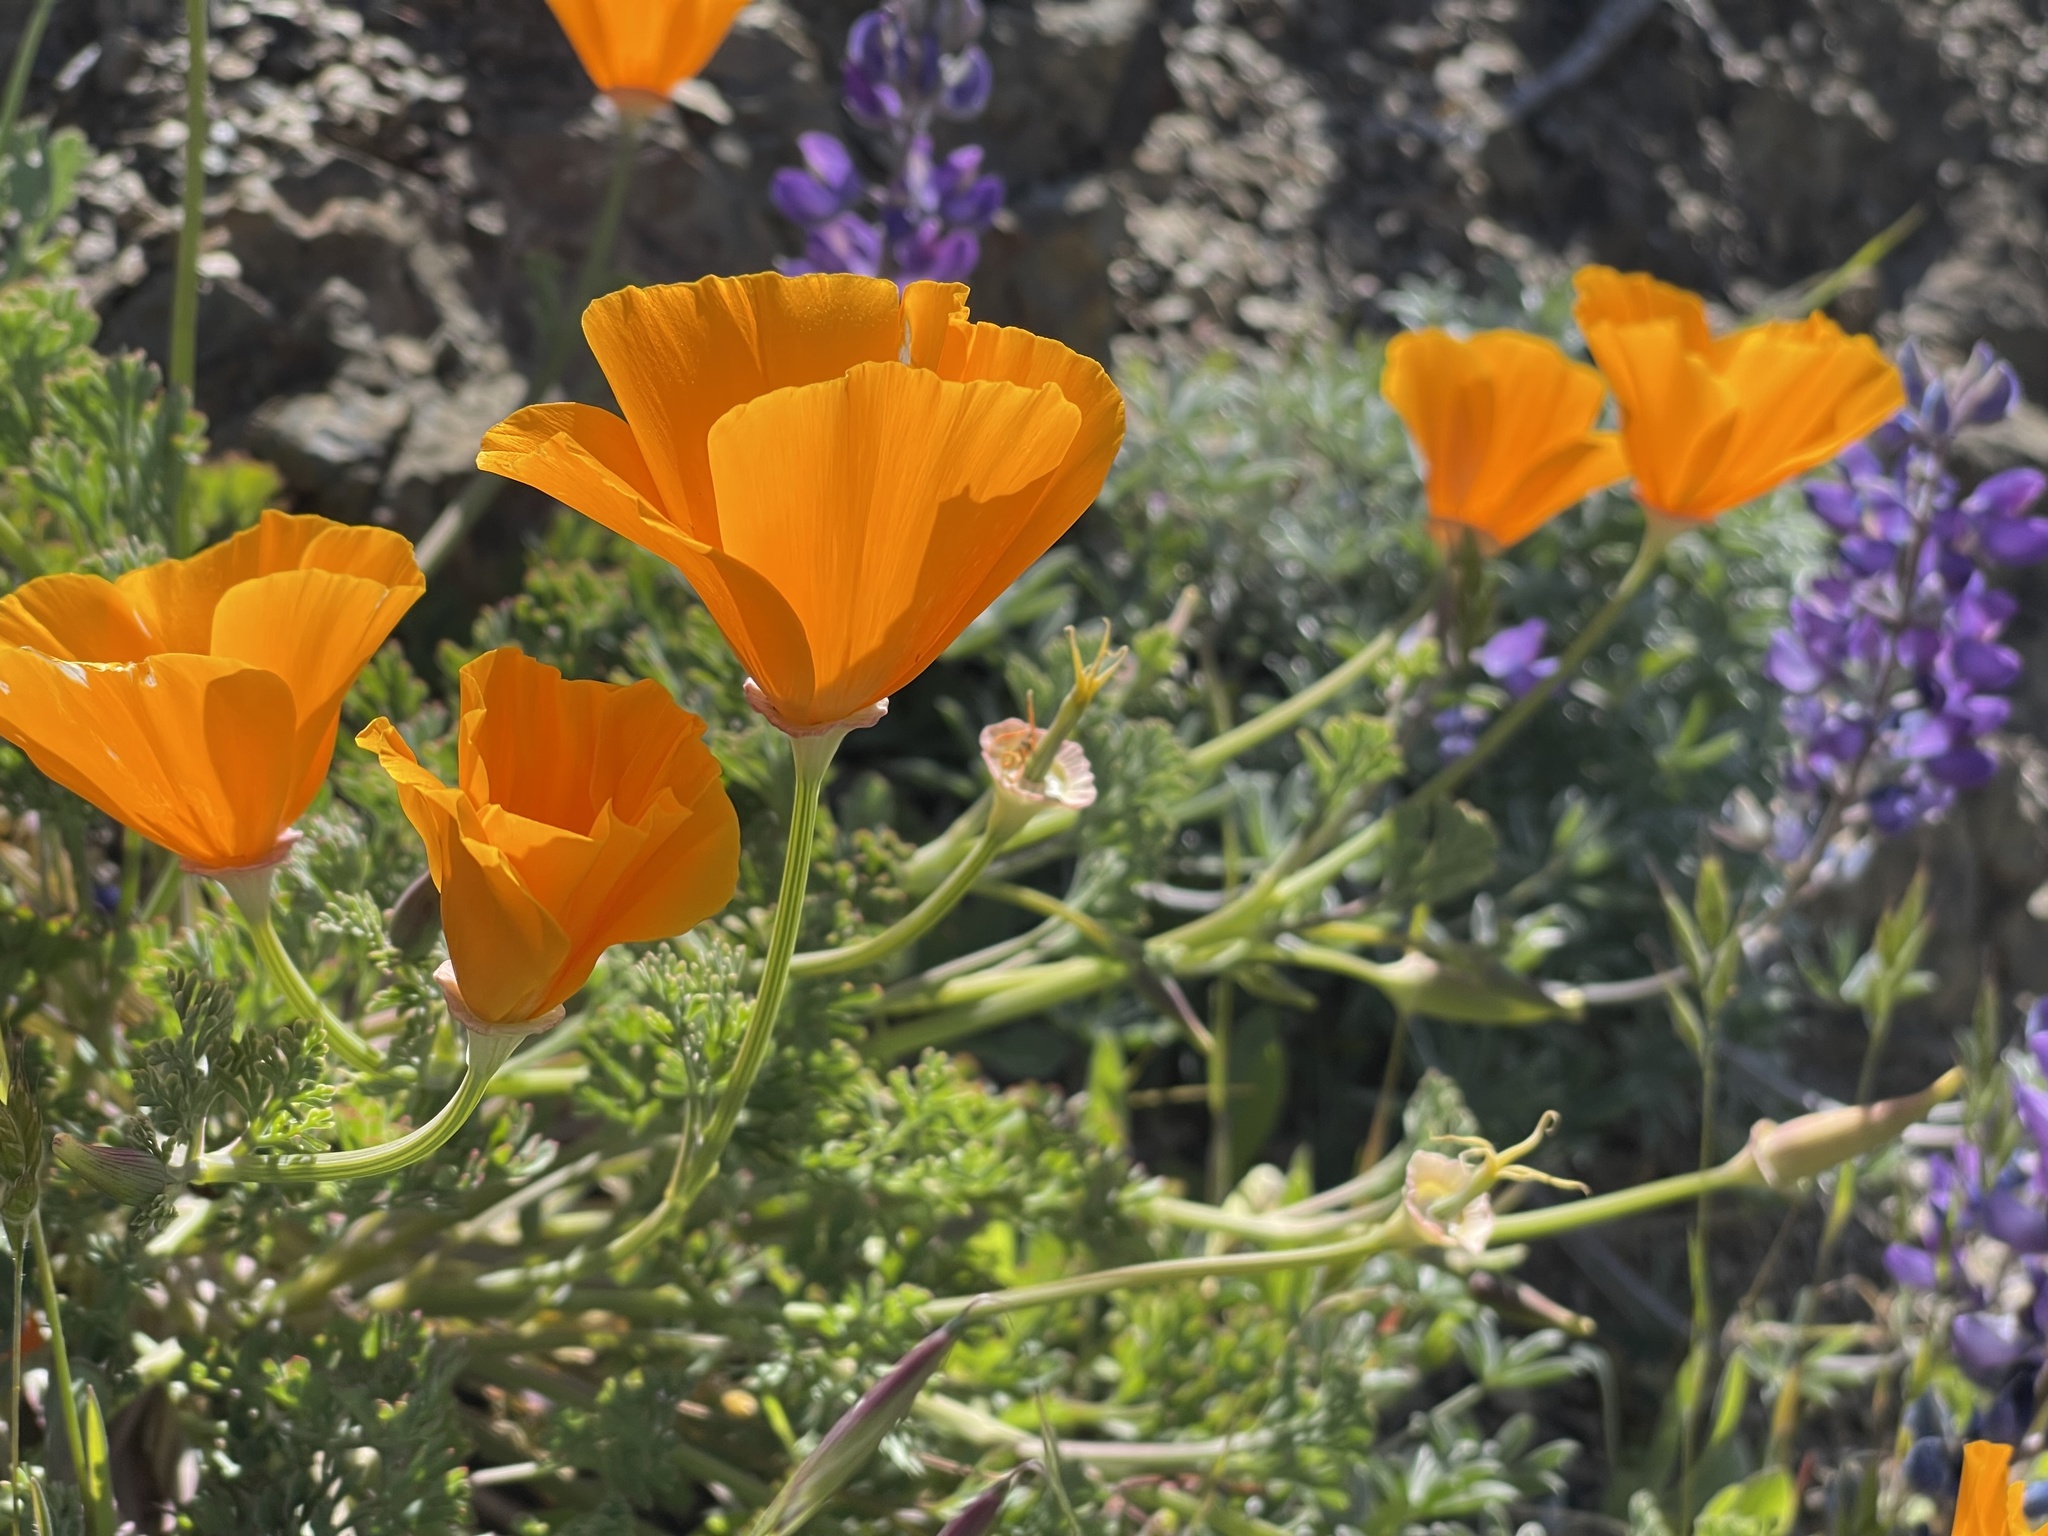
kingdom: Plantae
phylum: Tracheophyta
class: Magnoliopsida
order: Ranunculales
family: Papaveraceae
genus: Eschscholzia
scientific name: Eschscholzia californica
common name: California poppy
